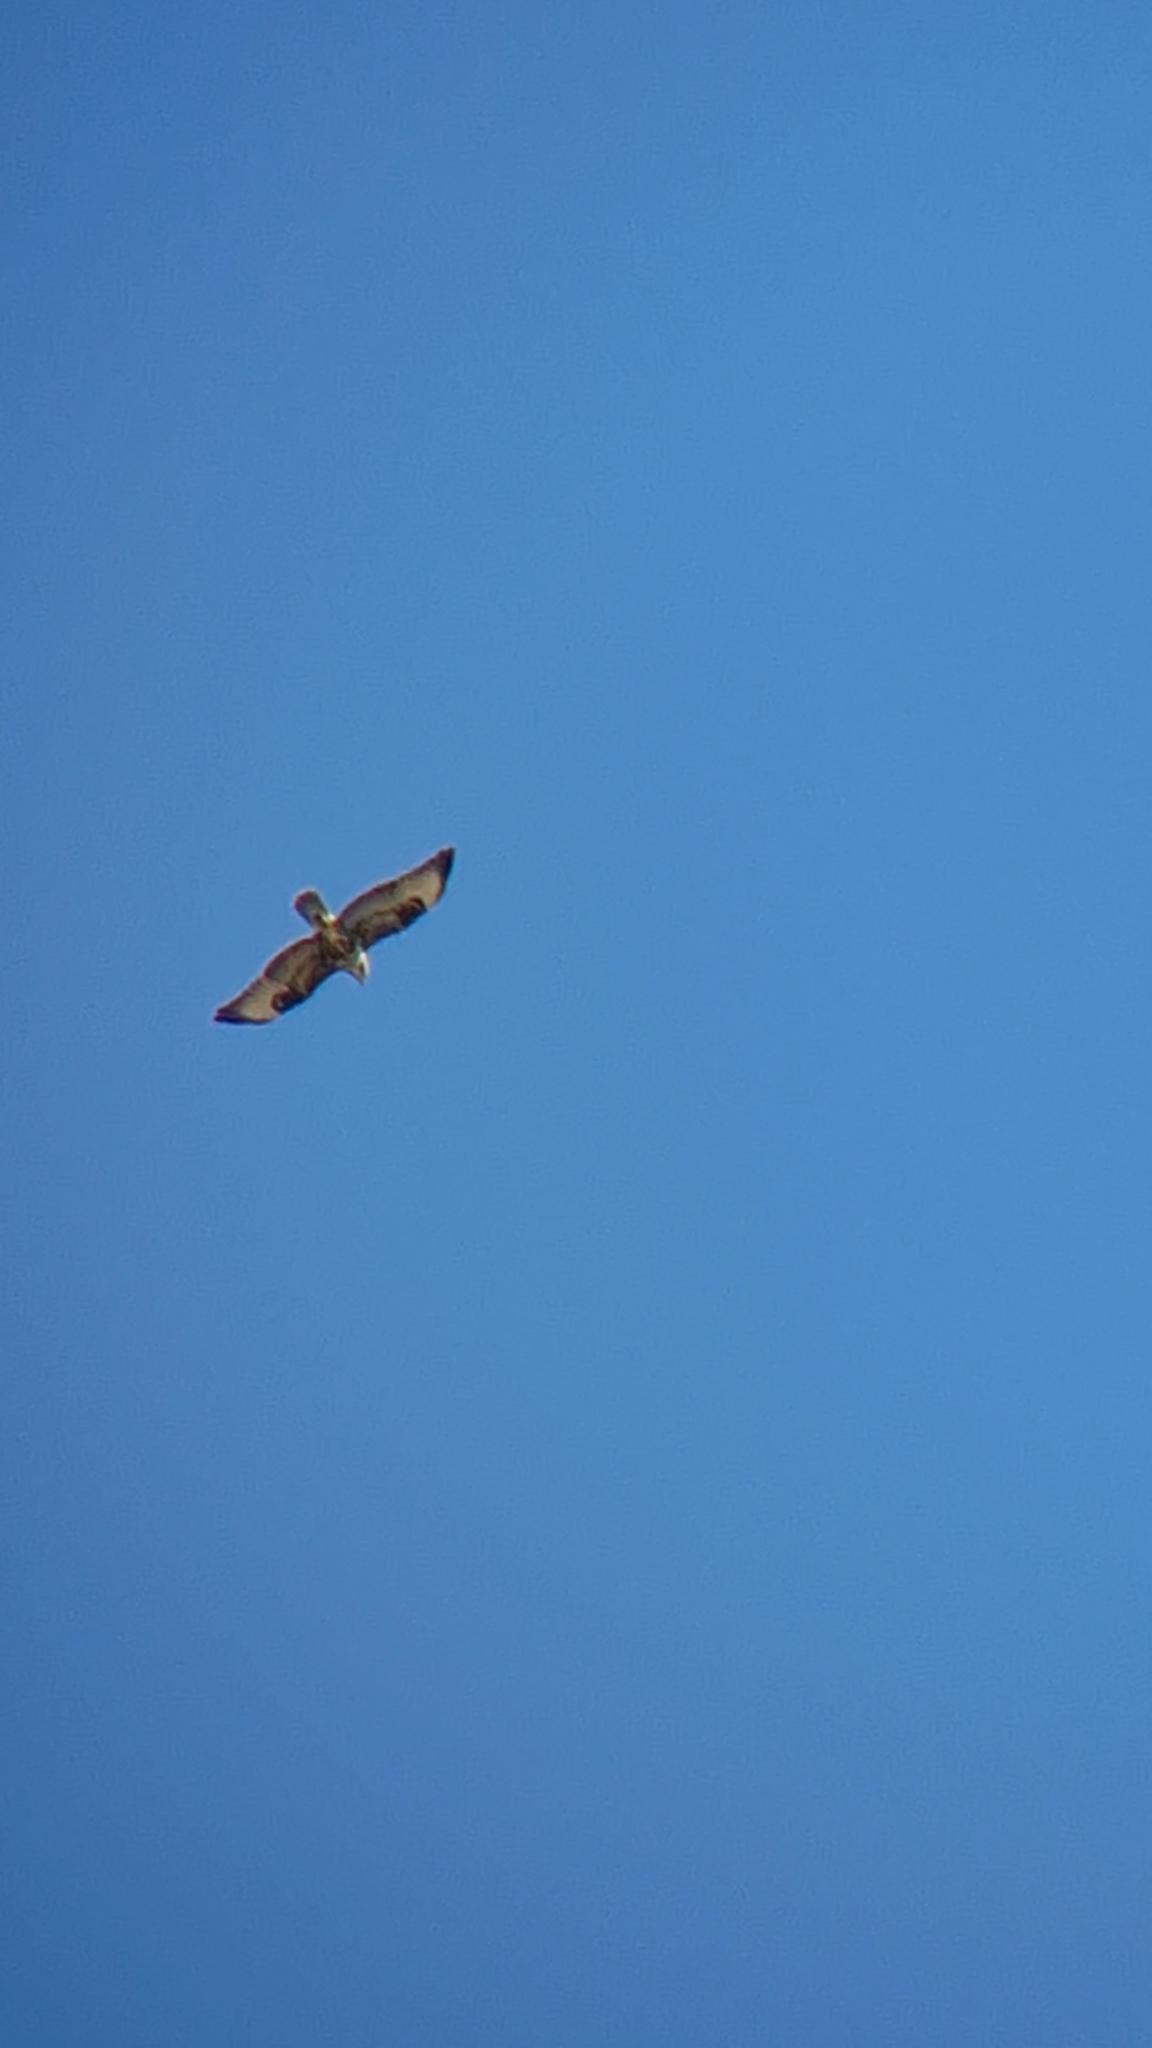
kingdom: Animalia
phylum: Chordata
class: Aves
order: Accipitriformes
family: Accipitridae
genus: Buteo
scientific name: Buteo buteo
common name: Common buzzard
